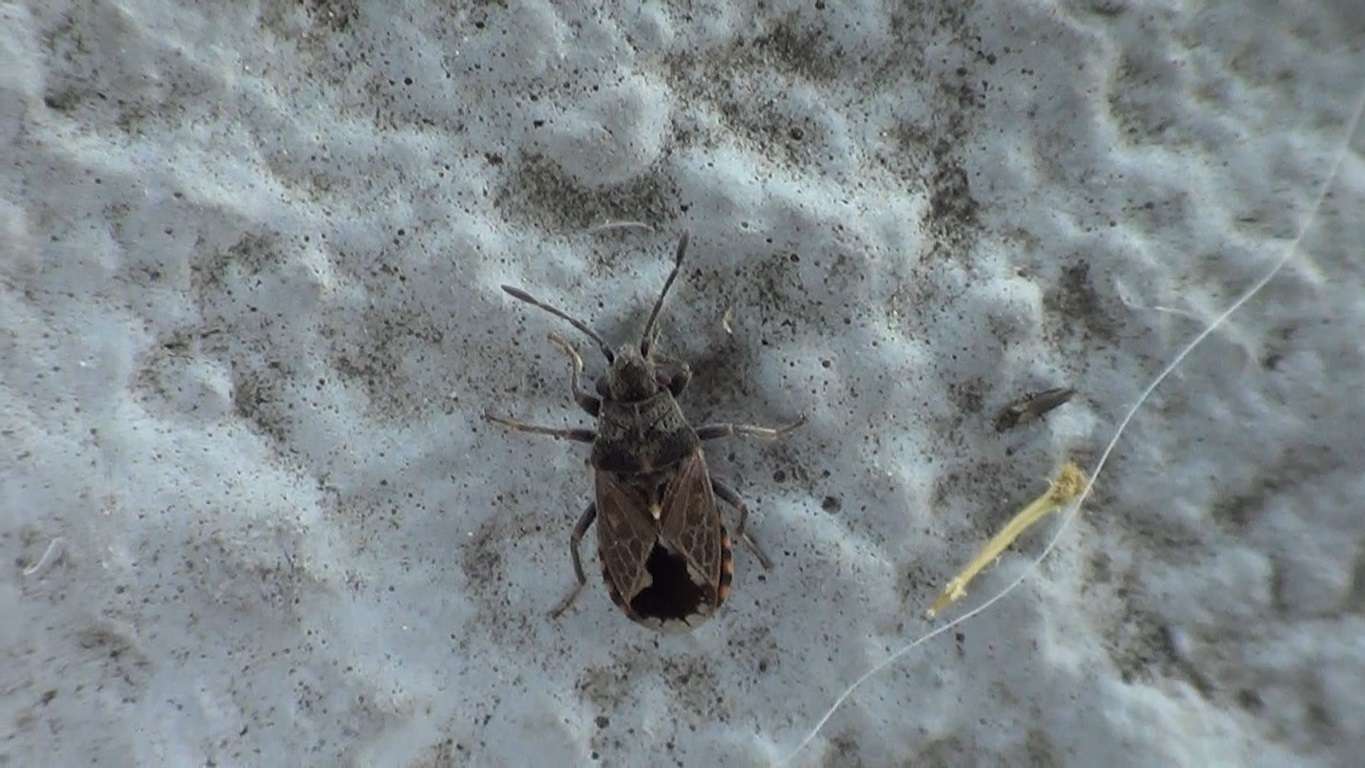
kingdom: Animalia
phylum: Arthropoda
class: Insecta
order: Hemiptera
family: Lygaeidae
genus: Lygaeosoma
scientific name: Lygaeosoma sardeum
